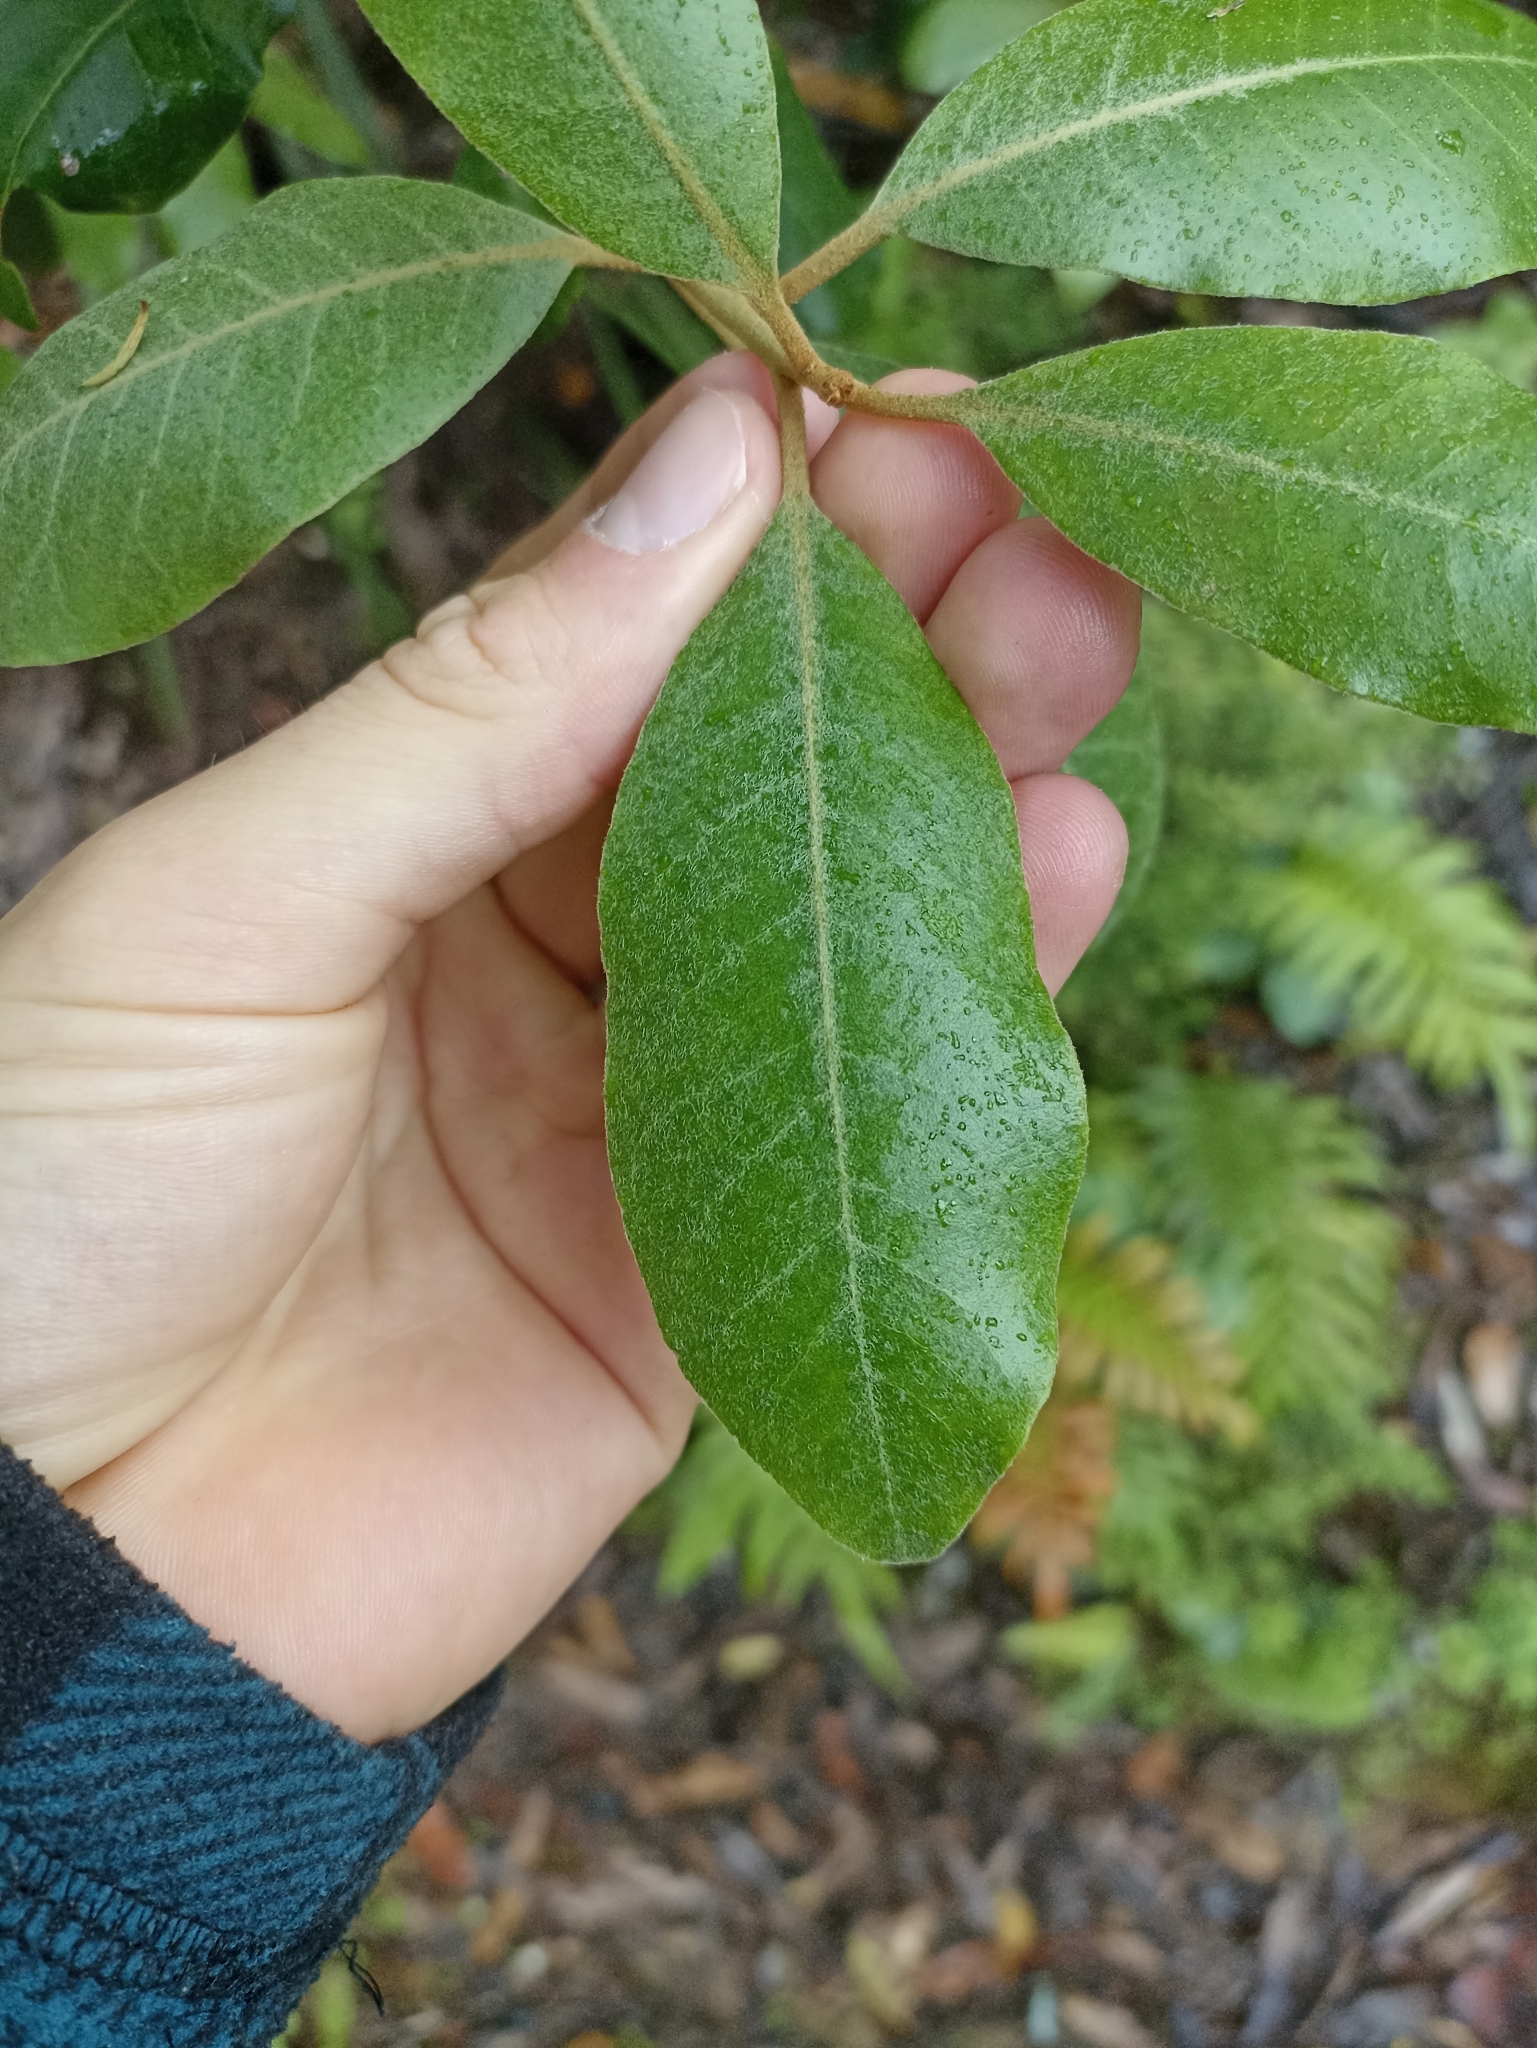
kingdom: Plantae
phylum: Tracheophyta
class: Magnoliopsida
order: Apiales
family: Pittosporaceae
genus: Pittosporum
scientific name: Pittosporum ellipticum
